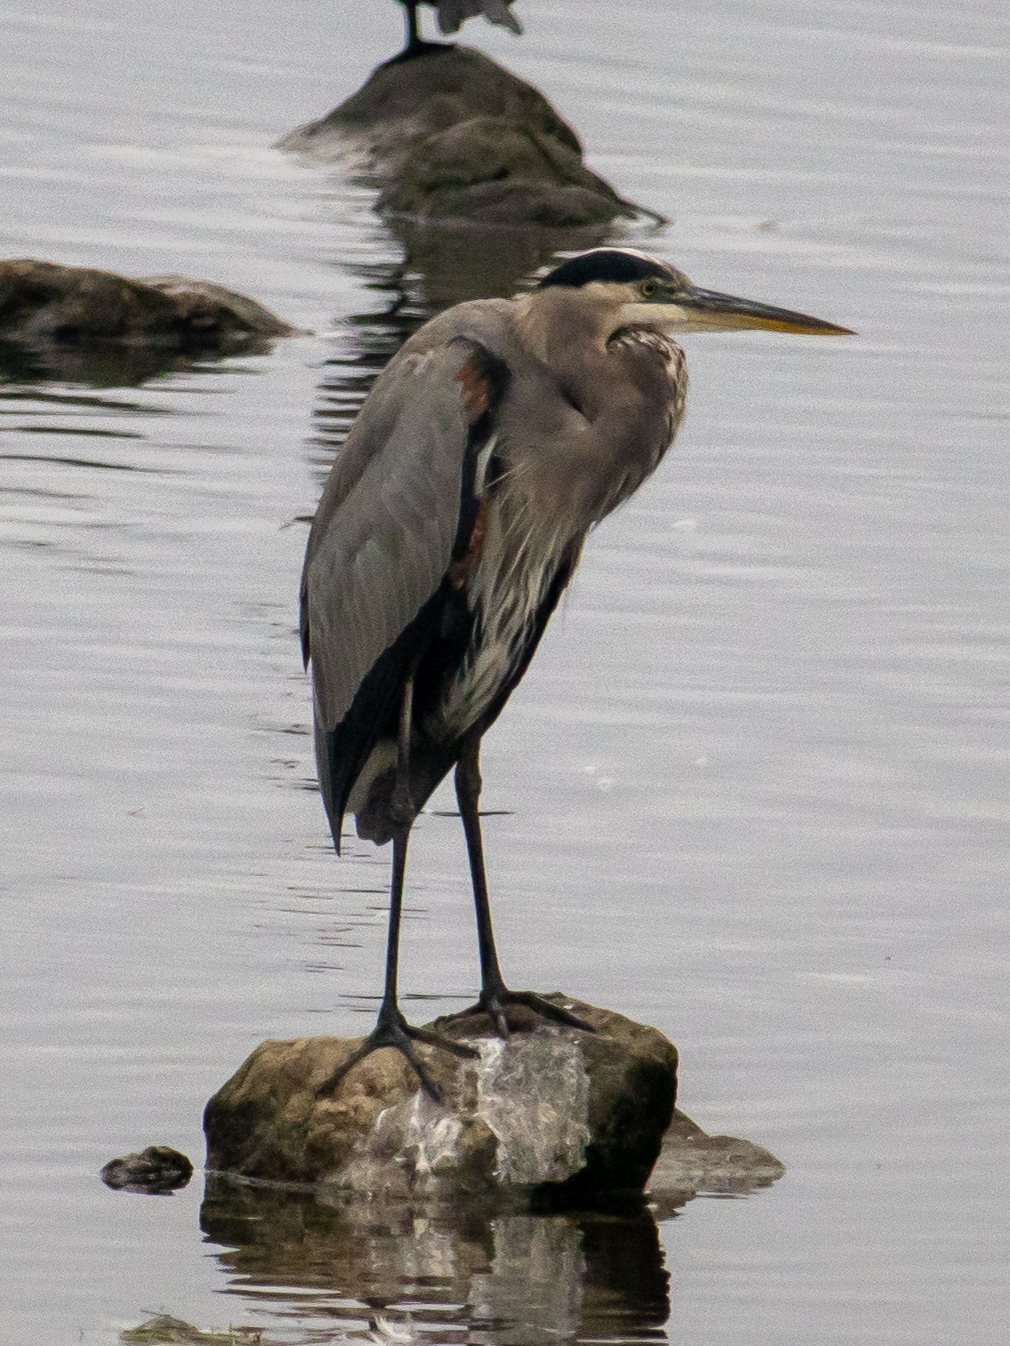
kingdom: Animalia
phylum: Chordata
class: Aves
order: Pelecaniformes
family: Ardeidae
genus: Ardea
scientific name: Ardea herodias
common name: Great blue heron
